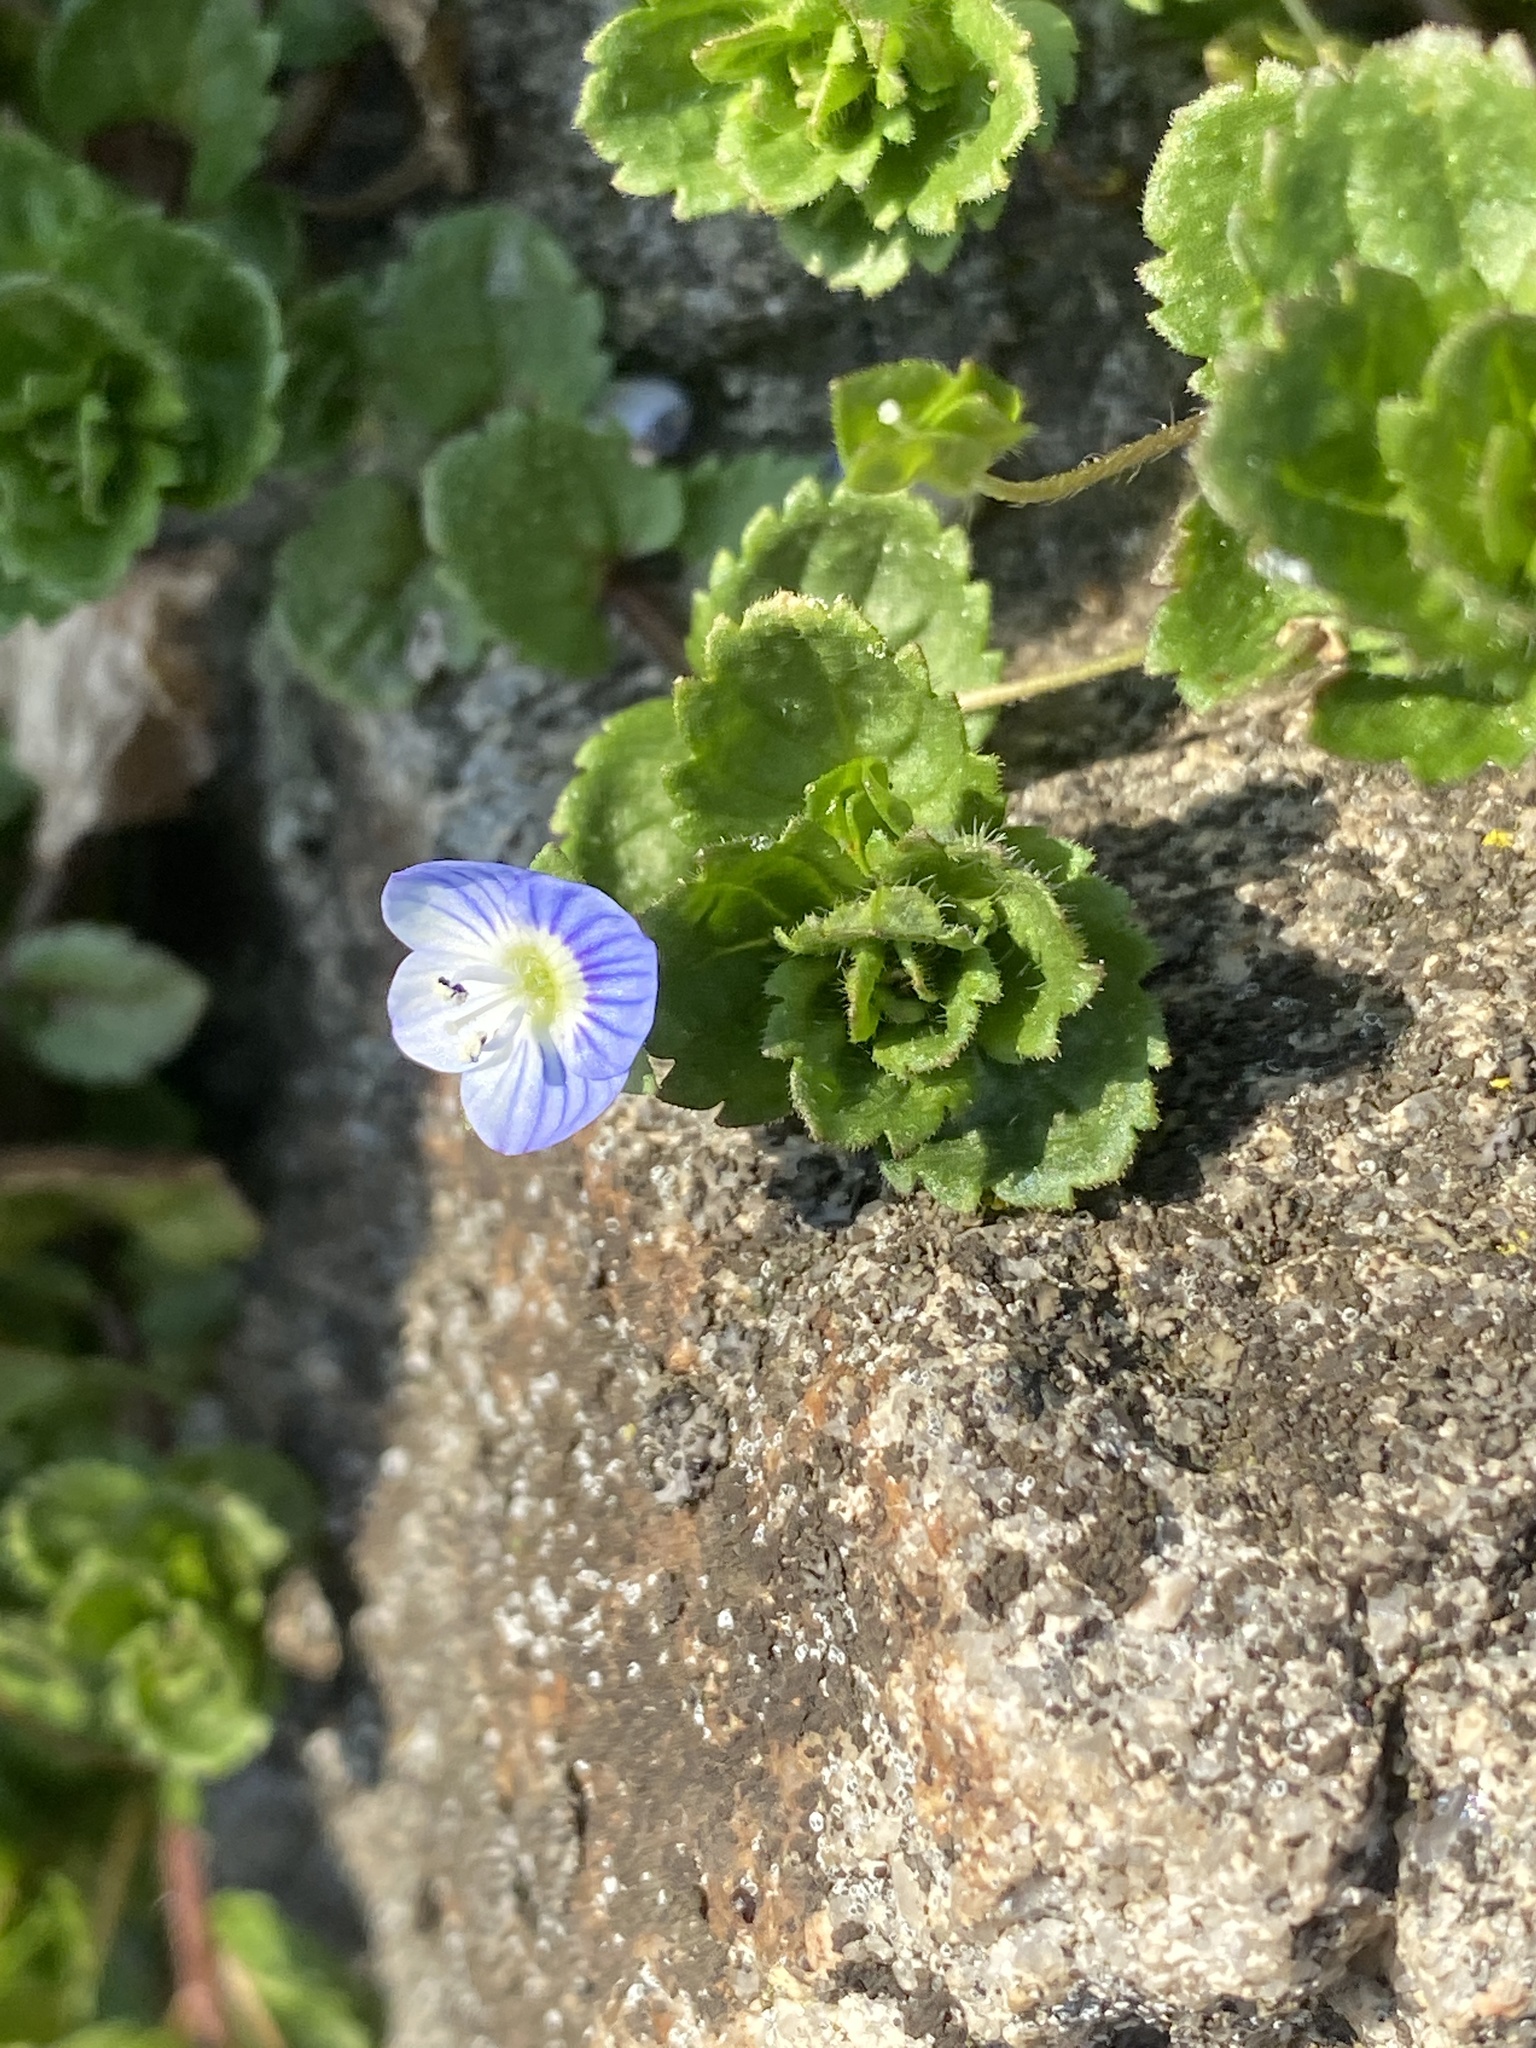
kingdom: Plantae
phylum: Tracheophyta
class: Magnoliopsida
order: Lamiales
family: Plantaginaceae
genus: Veronica
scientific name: Veronica persica
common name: Common field-speedwell
